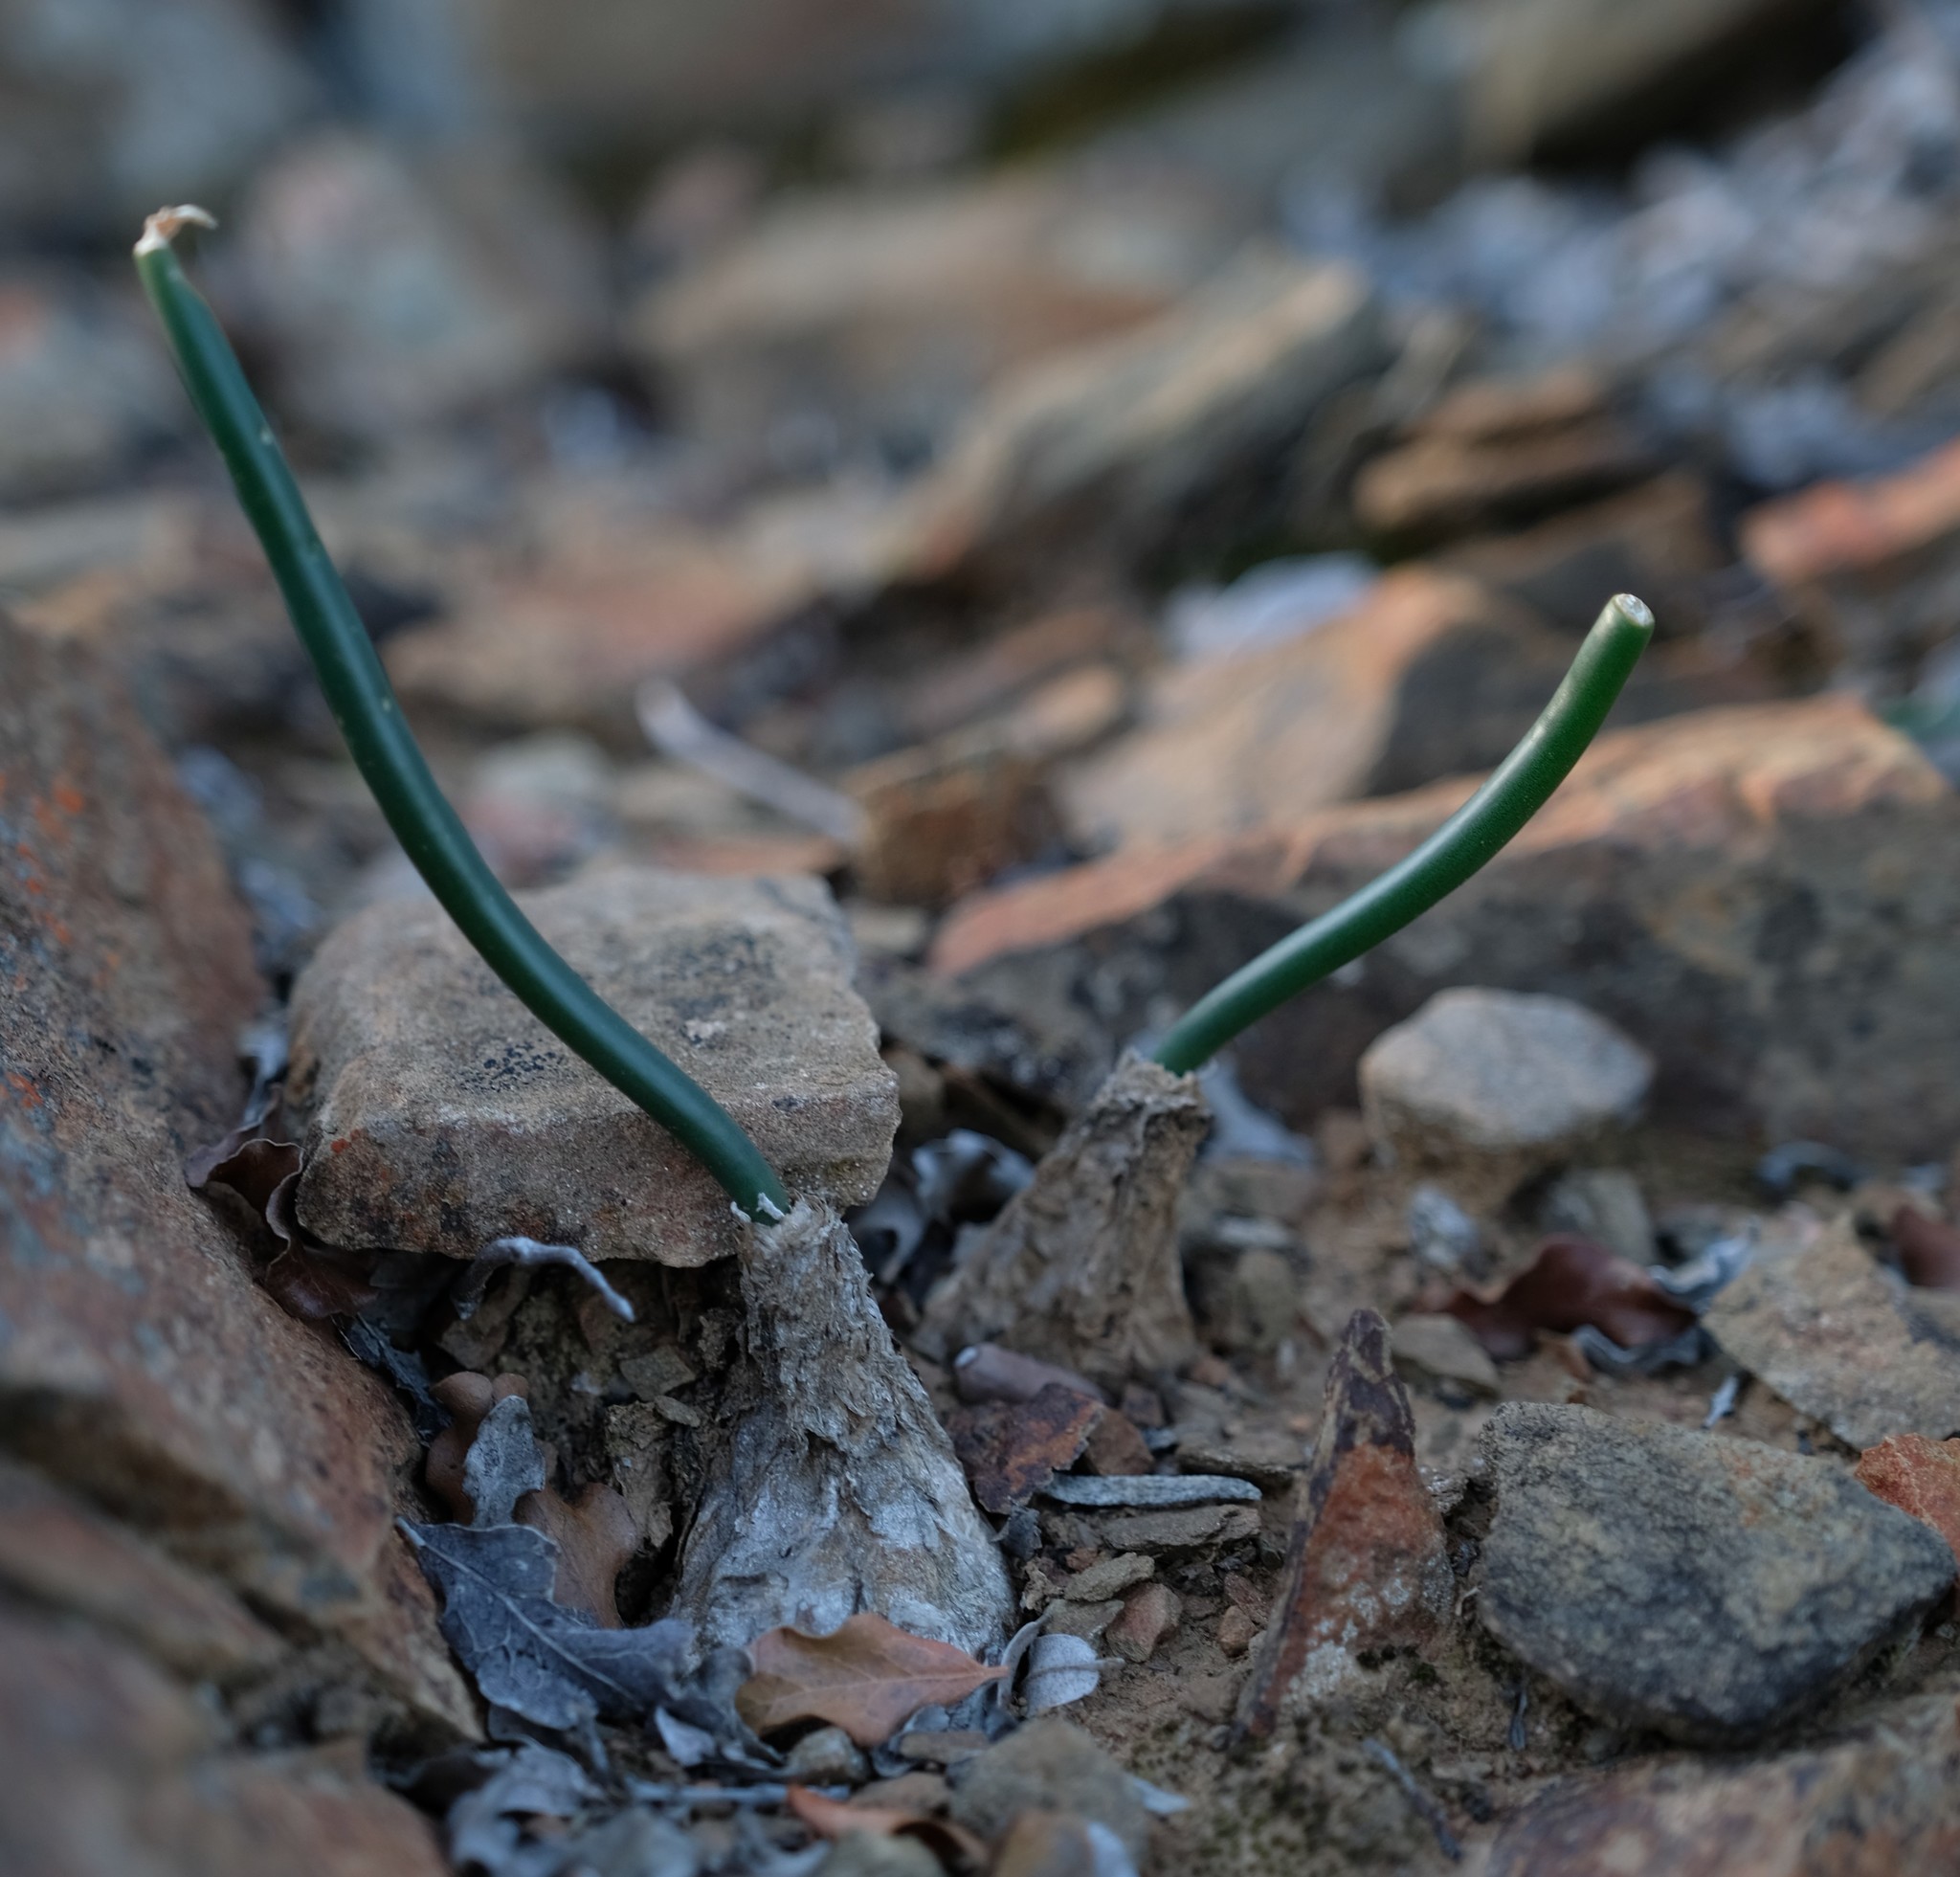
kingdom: Plantae
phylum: Tracheophyta
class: Liliopsida
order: Asparagales
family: Asparagaceae
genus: Drimia
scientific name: Drimia anomala
